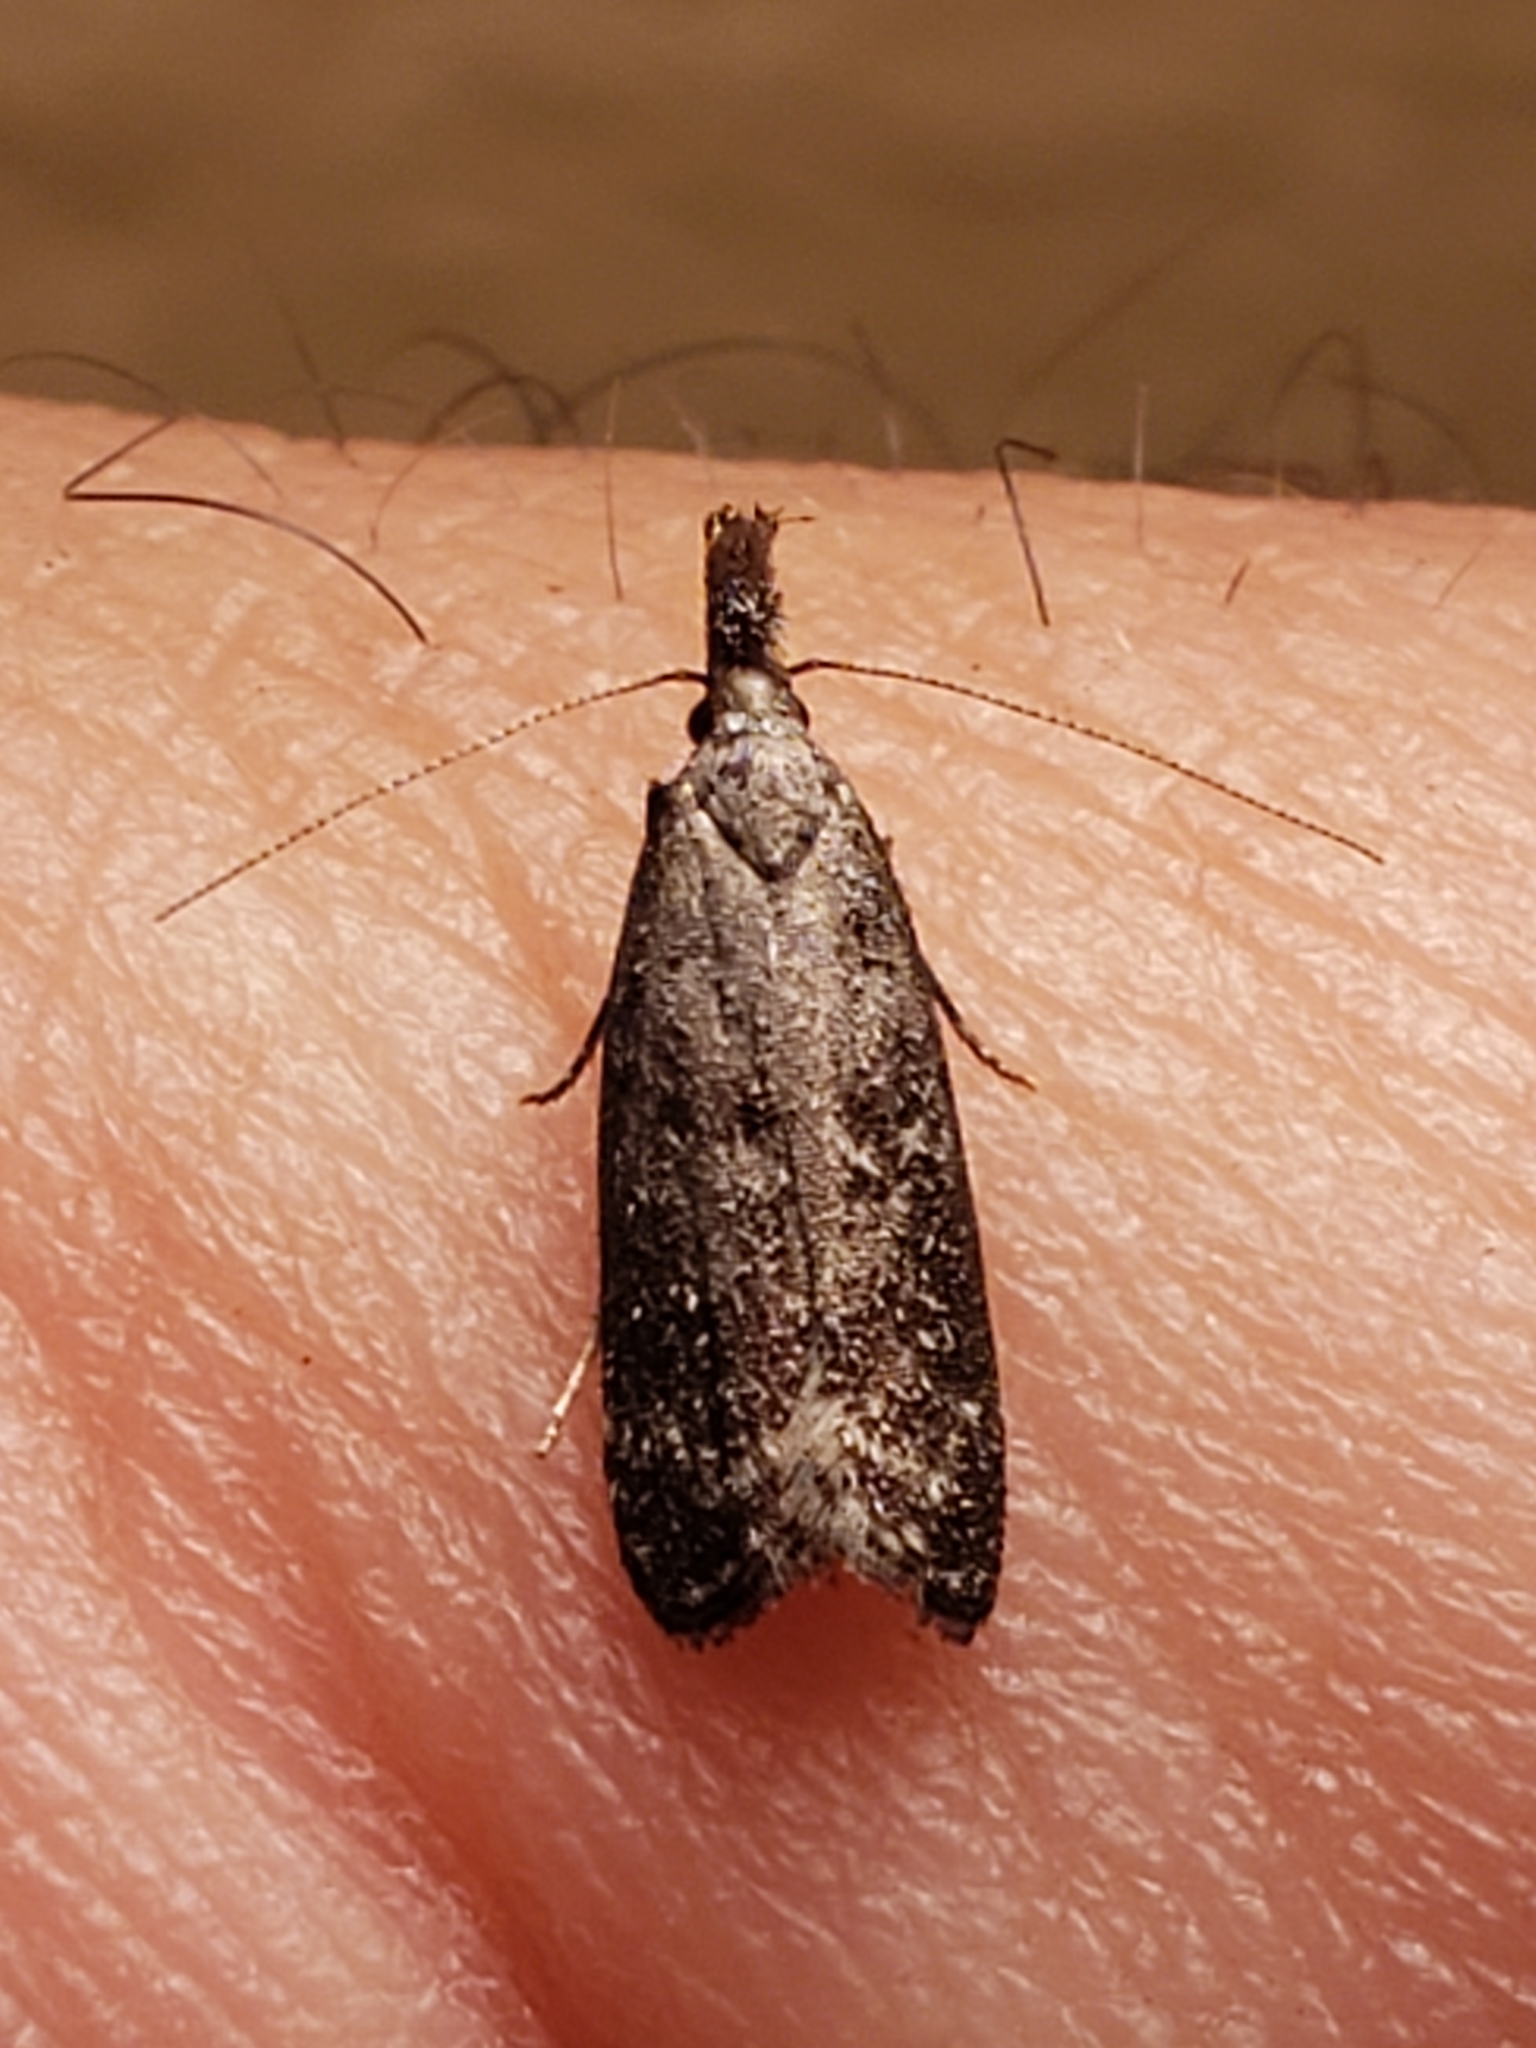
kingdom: Animalia
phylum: Arthropoda
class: Insecta
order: Lepidoptera
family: Gelechiidae
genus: Dichomeris
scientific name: Dichomeris inversella
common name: Inverse dichomeris moth
